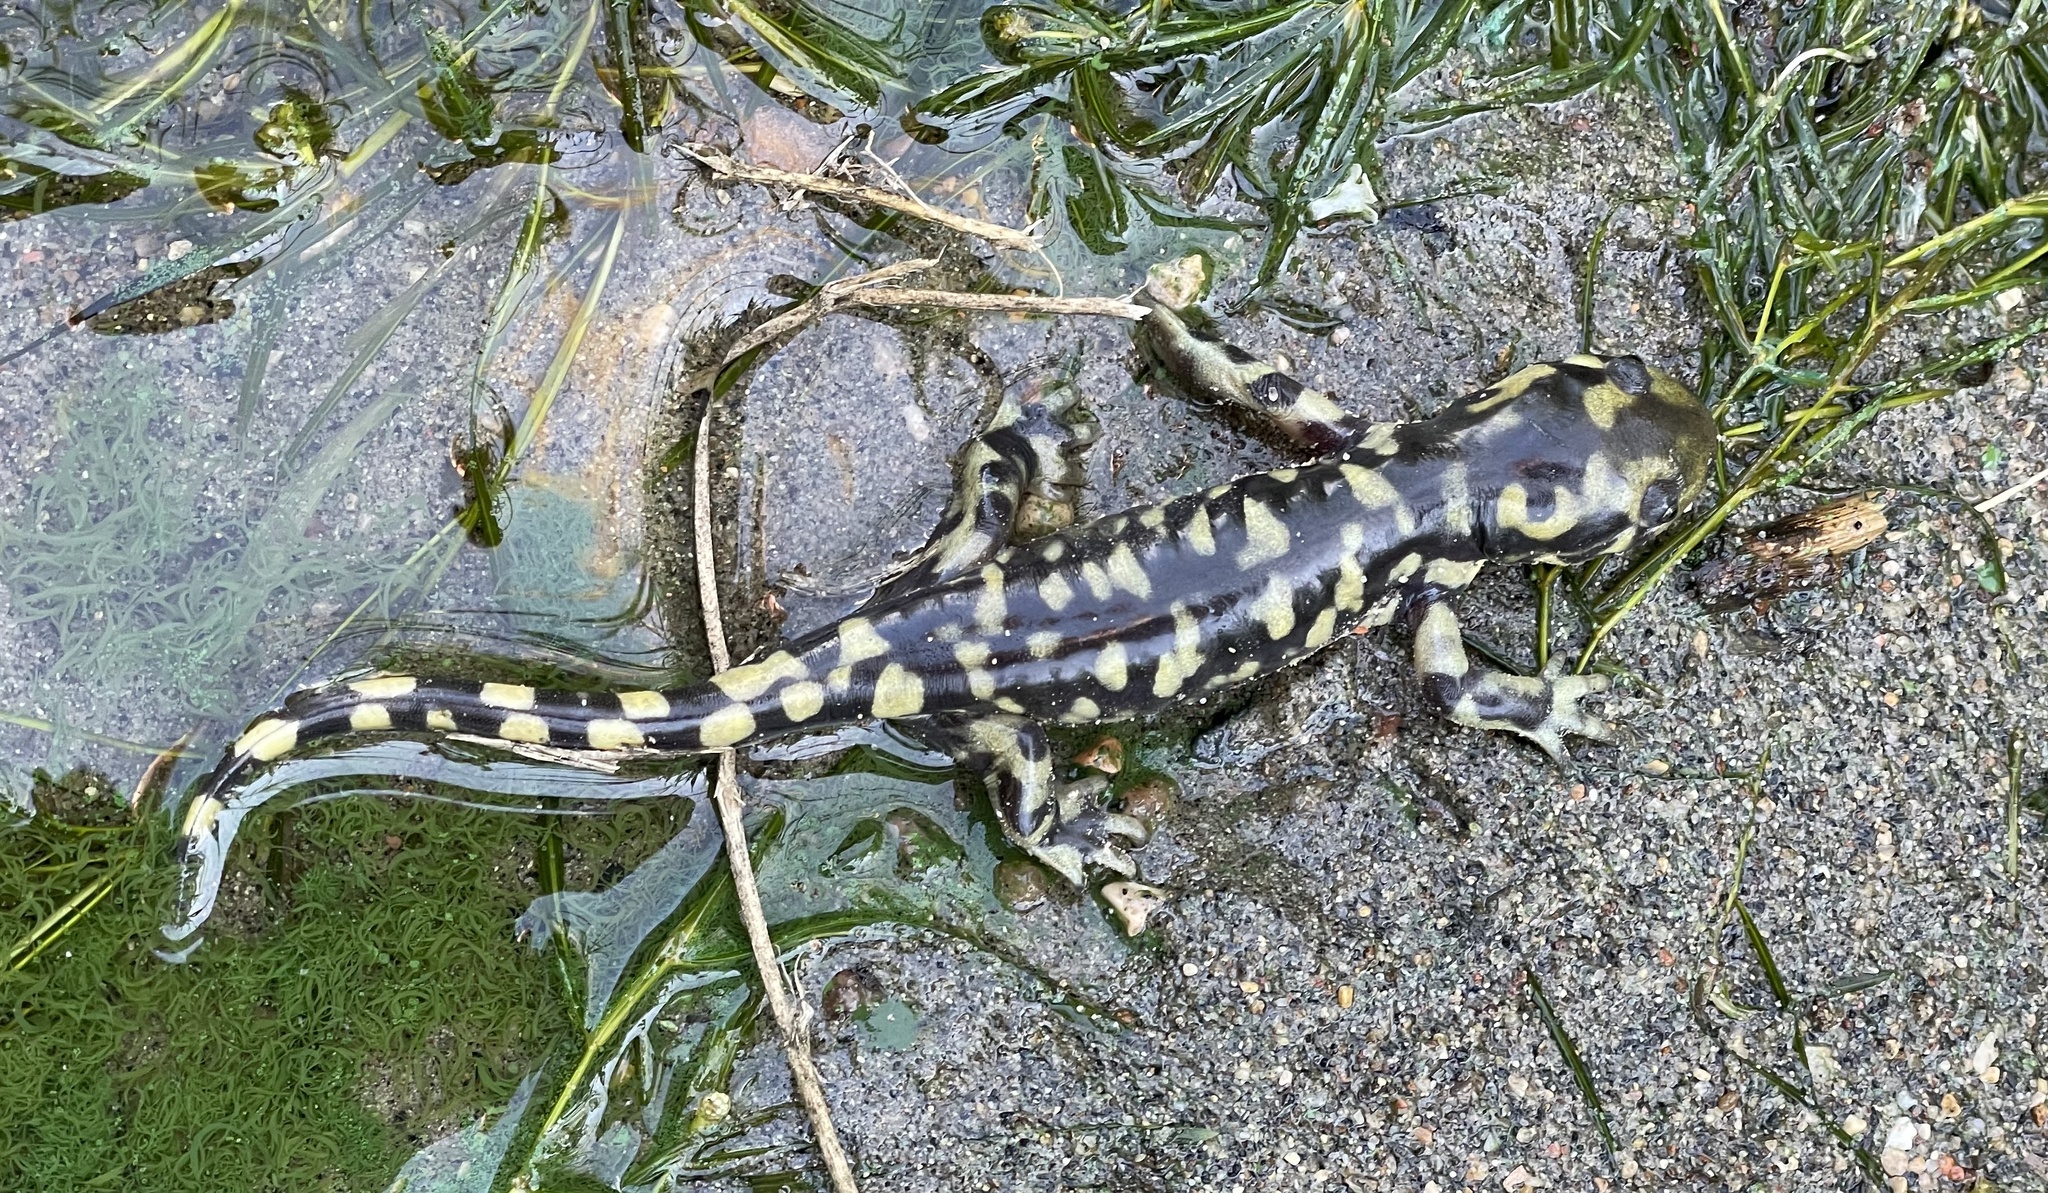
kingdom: Animalia
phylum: Chordata
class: Amphibia
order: Caudata
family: Ambystomatidae
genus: Ambystoma
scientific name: Ambystoma mavortium
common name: Western tiger salamander
